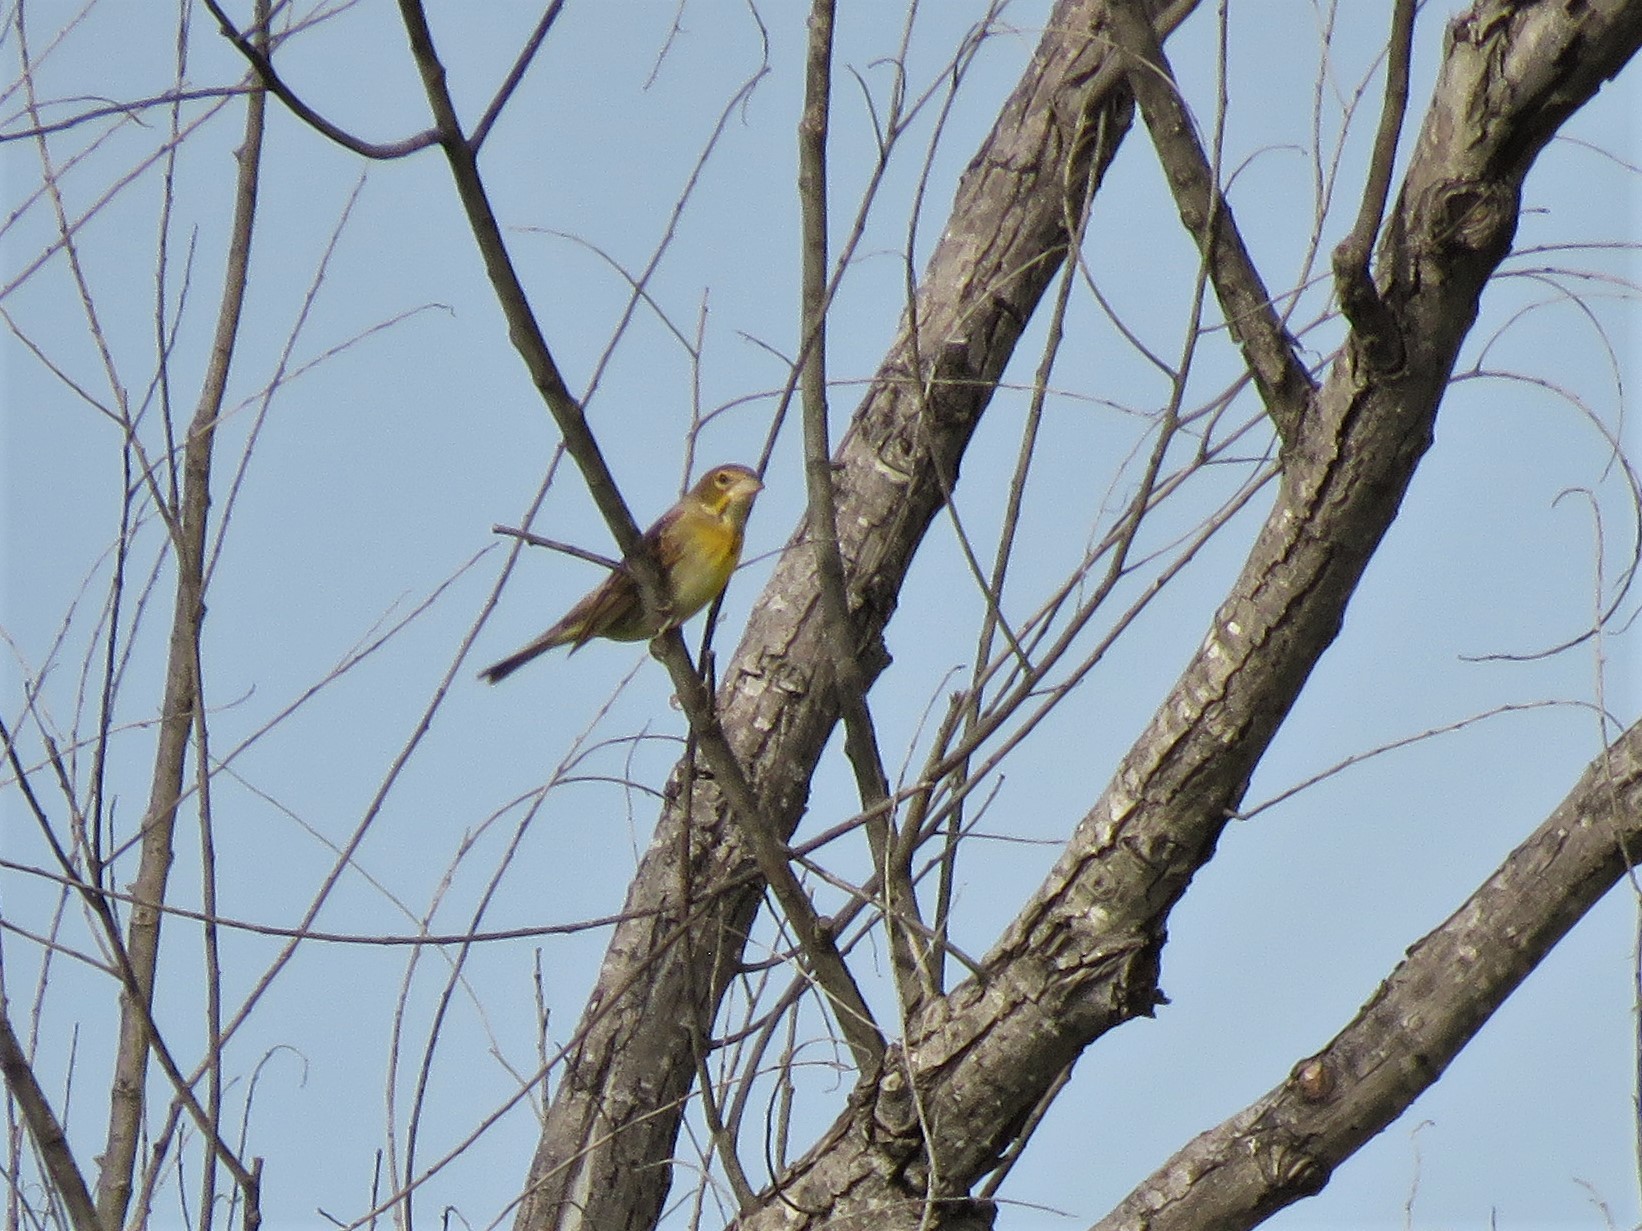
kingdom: Animalia
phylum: Chordata
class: Aves
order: Passeriformes
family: Cardinalidae
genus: Spiza
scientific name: Spiza americana
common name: Dickcissel
